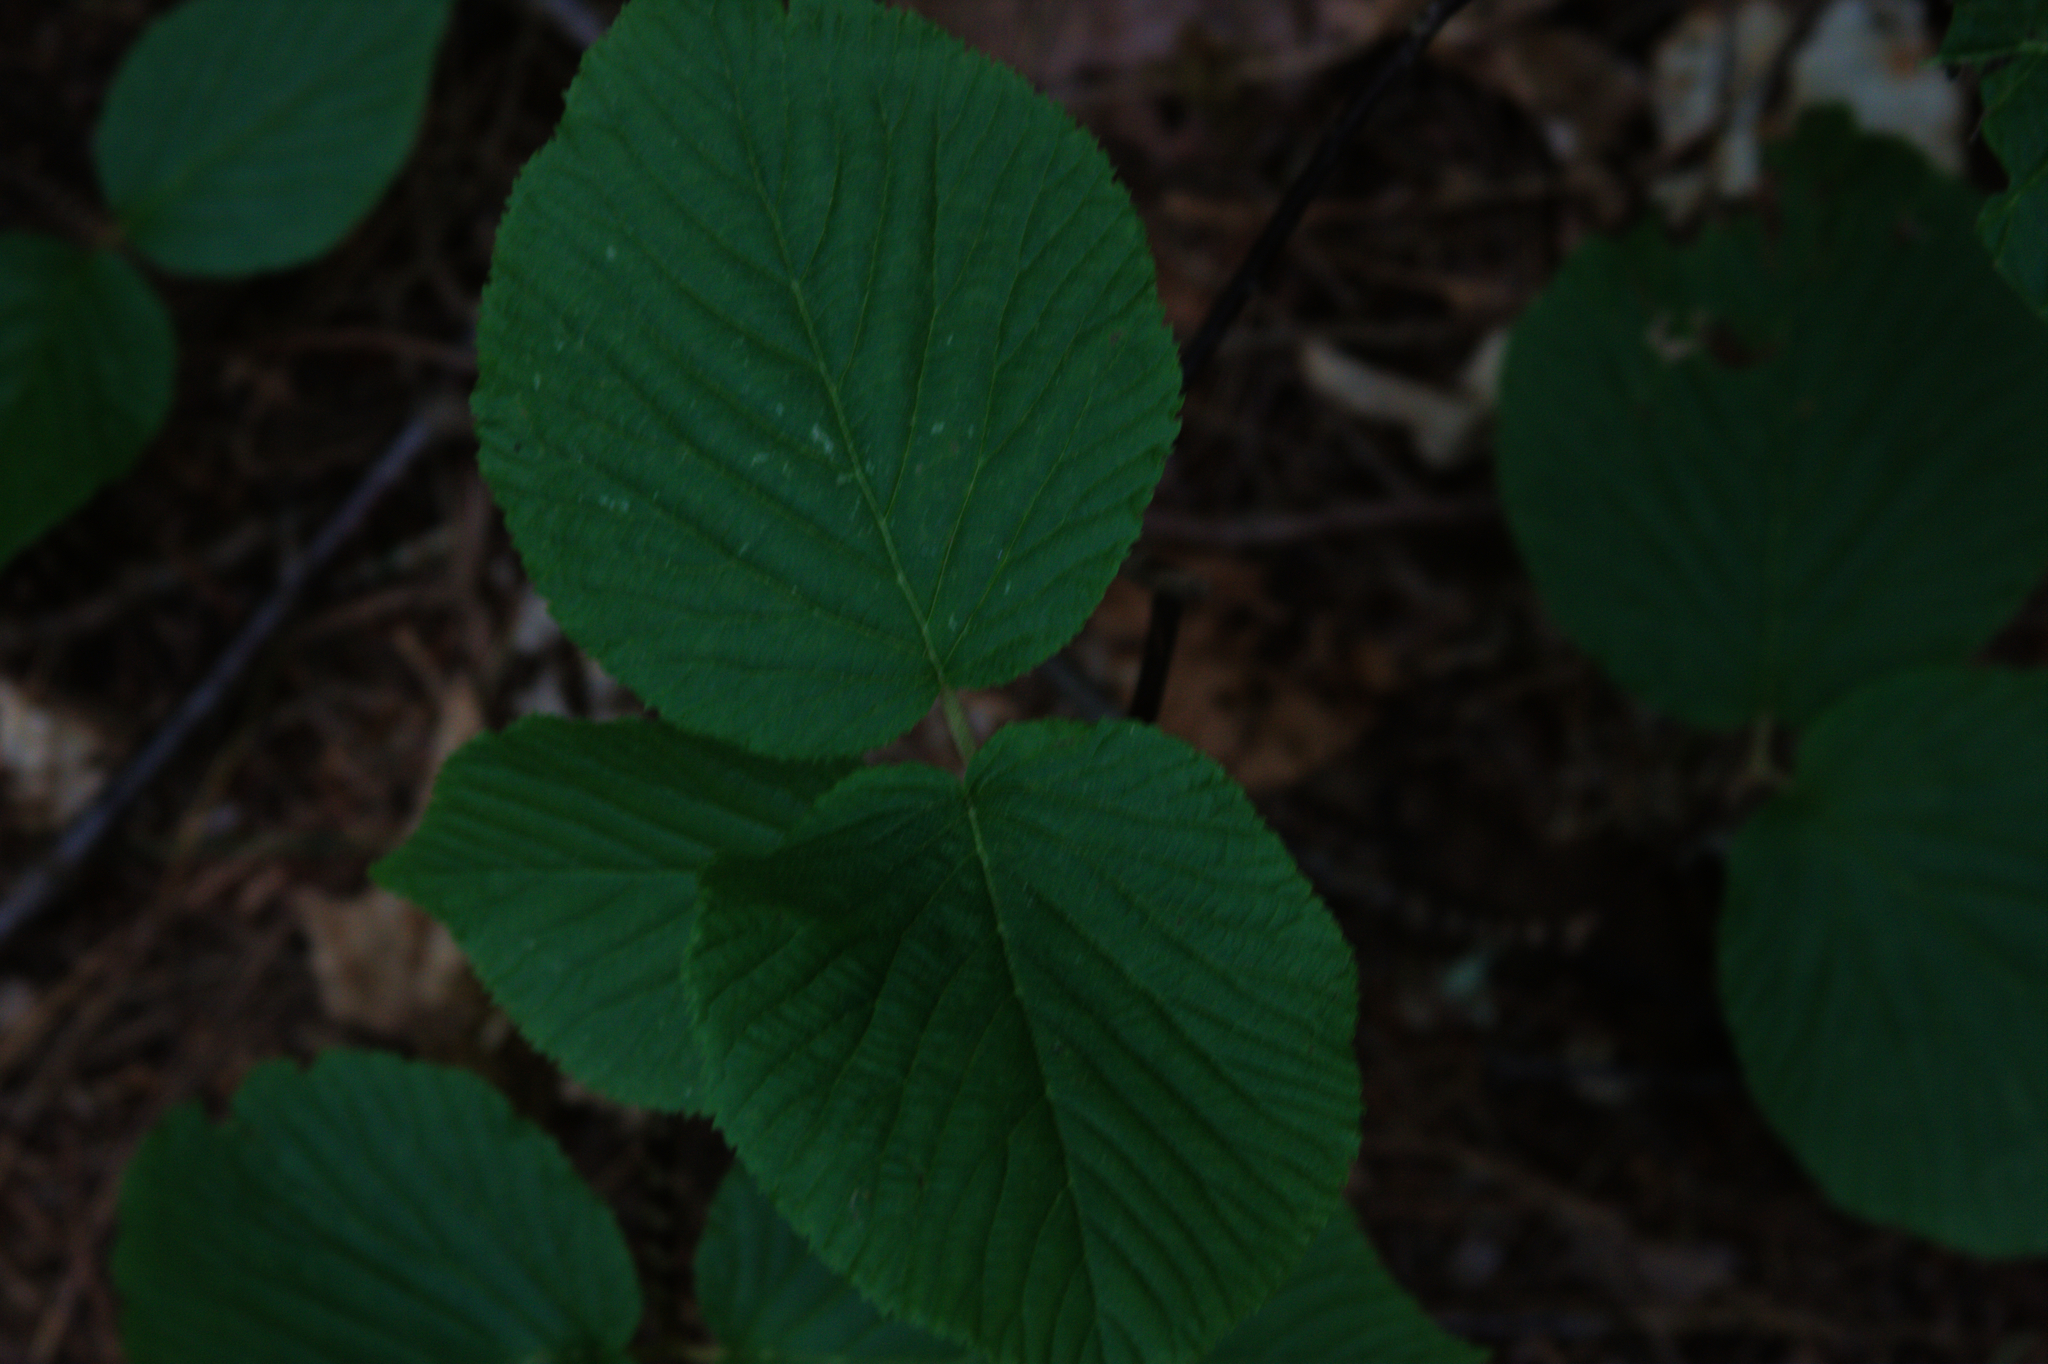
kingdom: Plantae
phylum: Tracheophyta
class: Magnoliopsida
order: Dipsacales
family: Viburnaceae
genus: Viburnum
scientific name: Viburnum lantanoides
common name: Hobblebush
